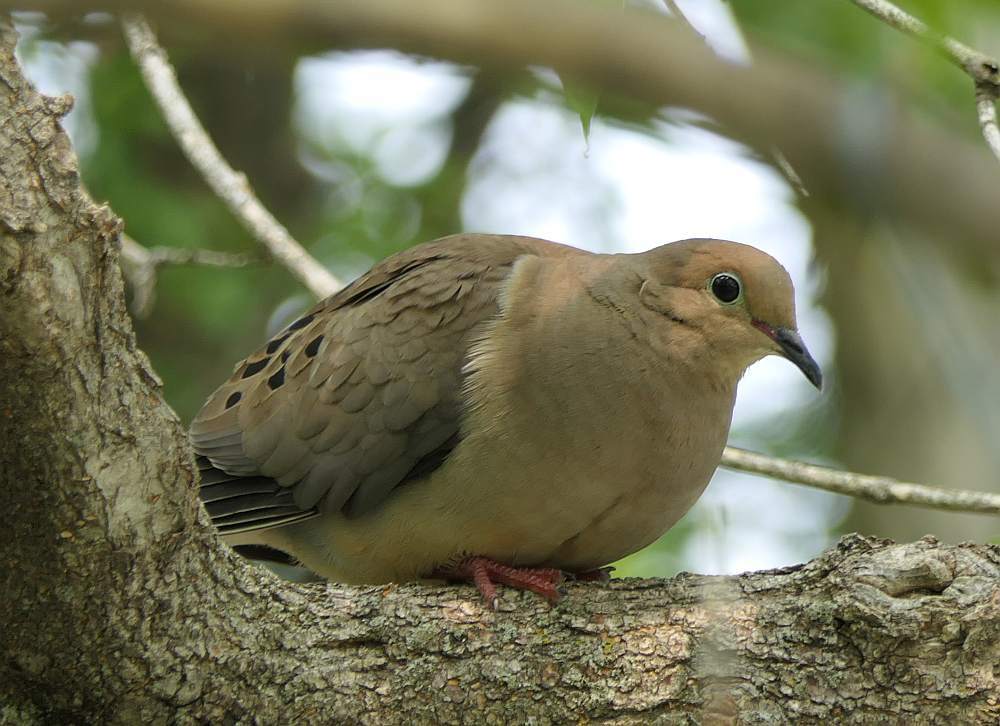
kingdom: Animalia
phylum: Chordata
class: Aves
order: Columbiformes
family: Columbidae
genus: Zenaida
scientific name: Zenaida macroura
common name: Mourning dove
